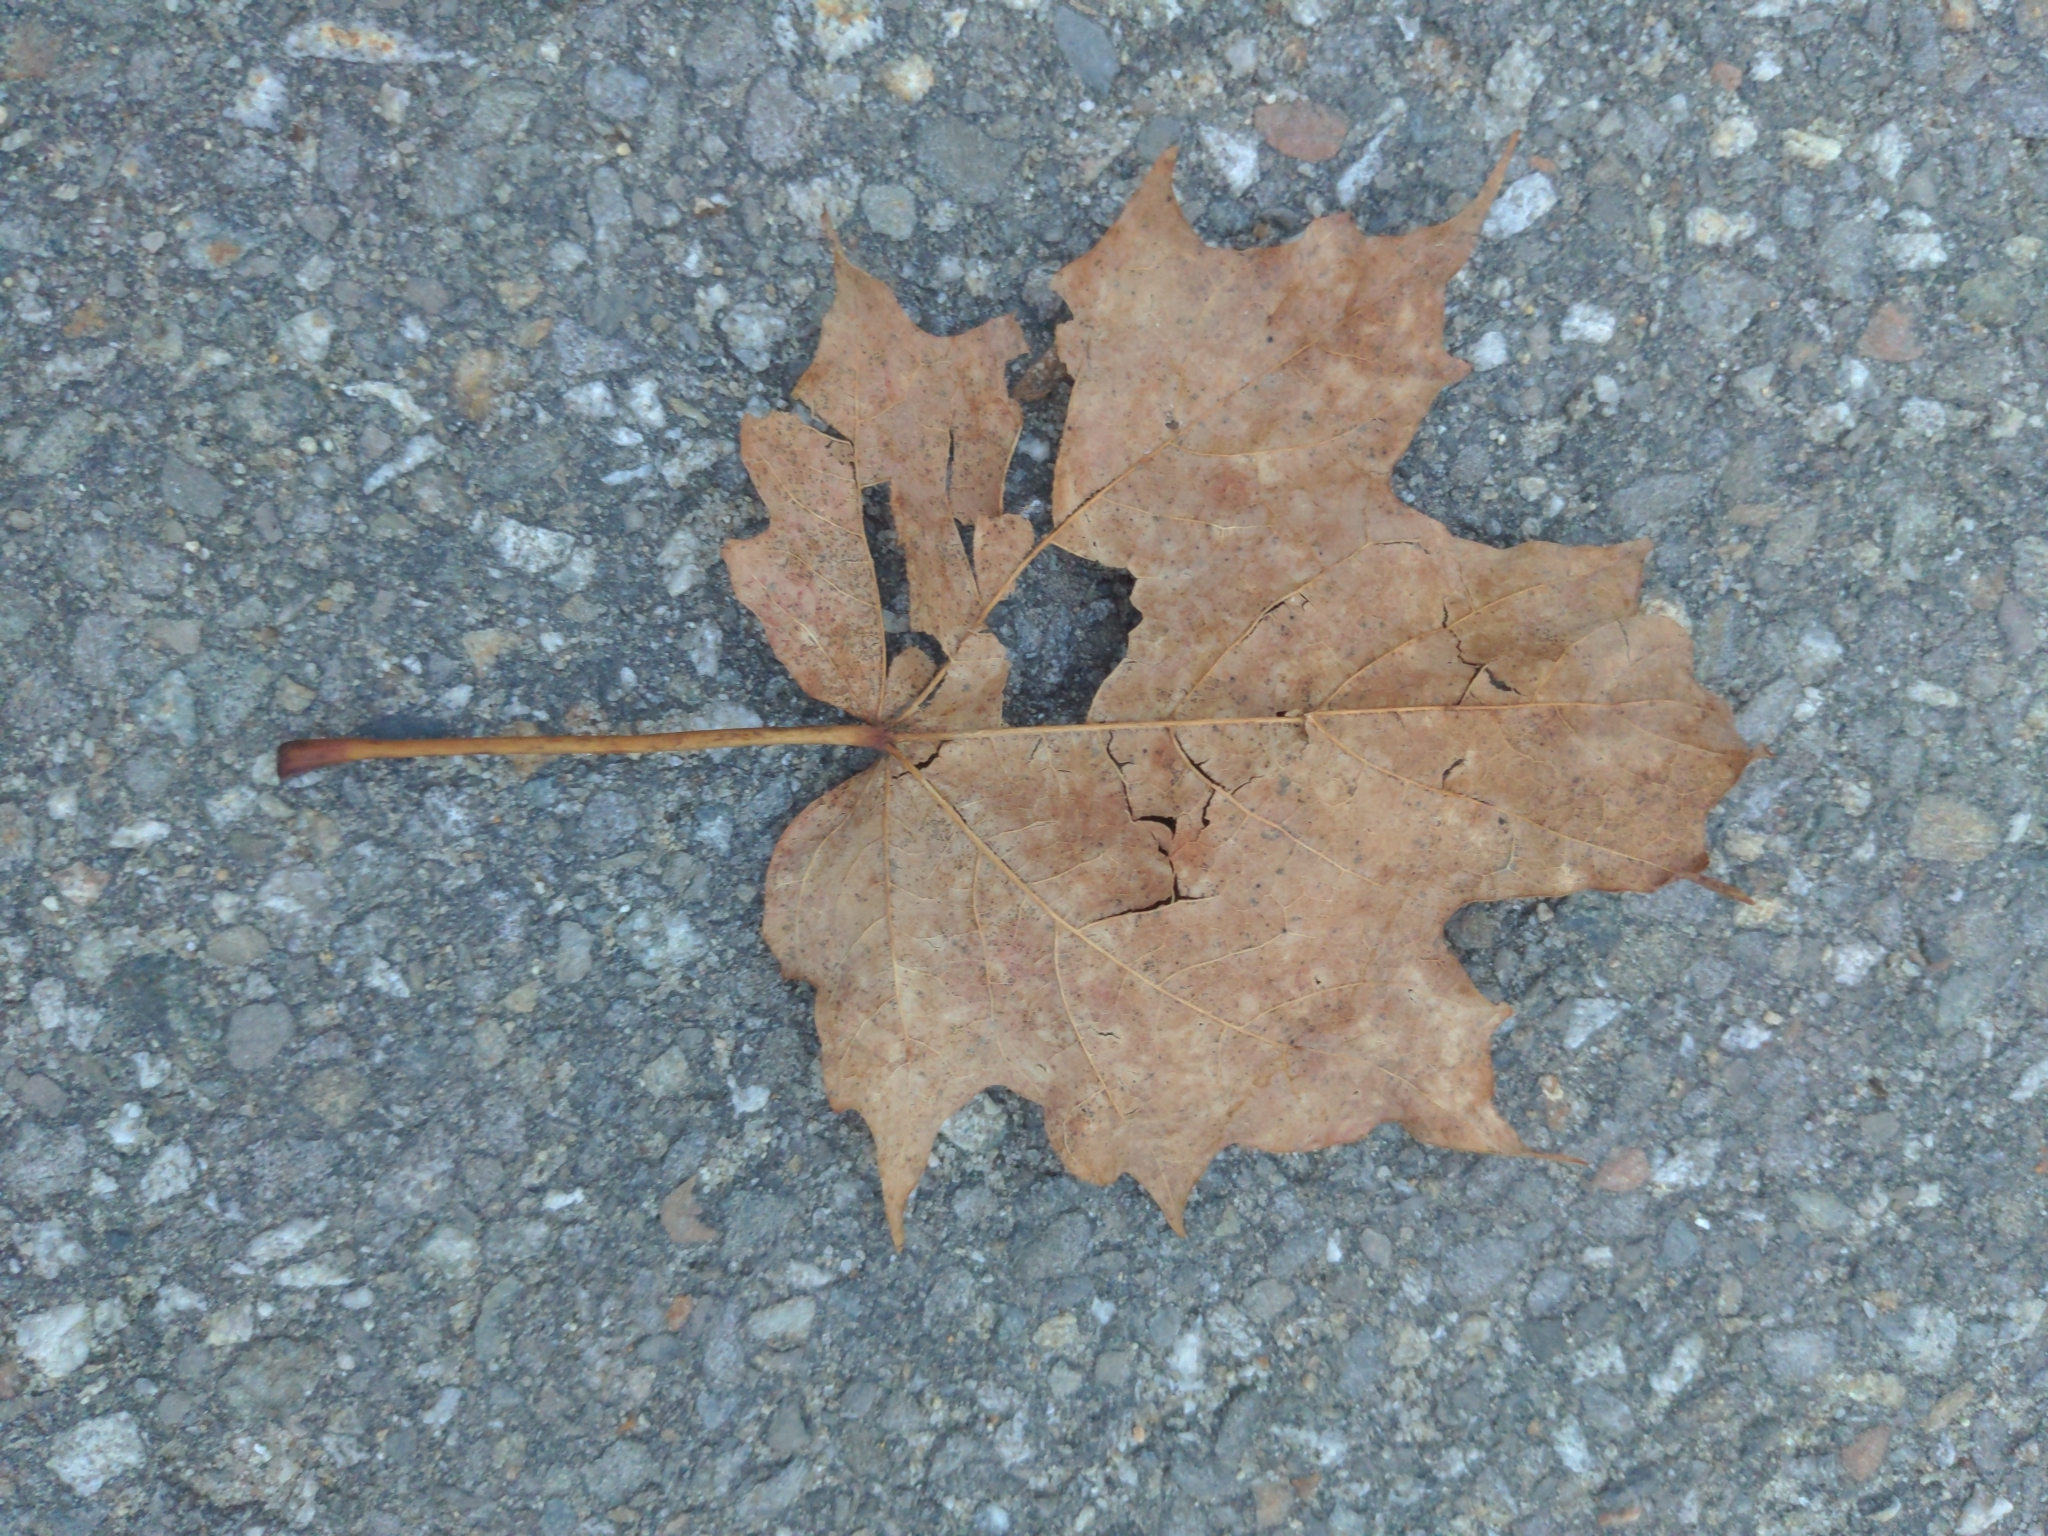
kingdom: Plantae
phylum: Tracheophyta
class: Magnoliopsida
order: Sapindales
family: Sapindaceae
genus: Acer
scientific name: Acer saccharum
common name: Sugar maple
